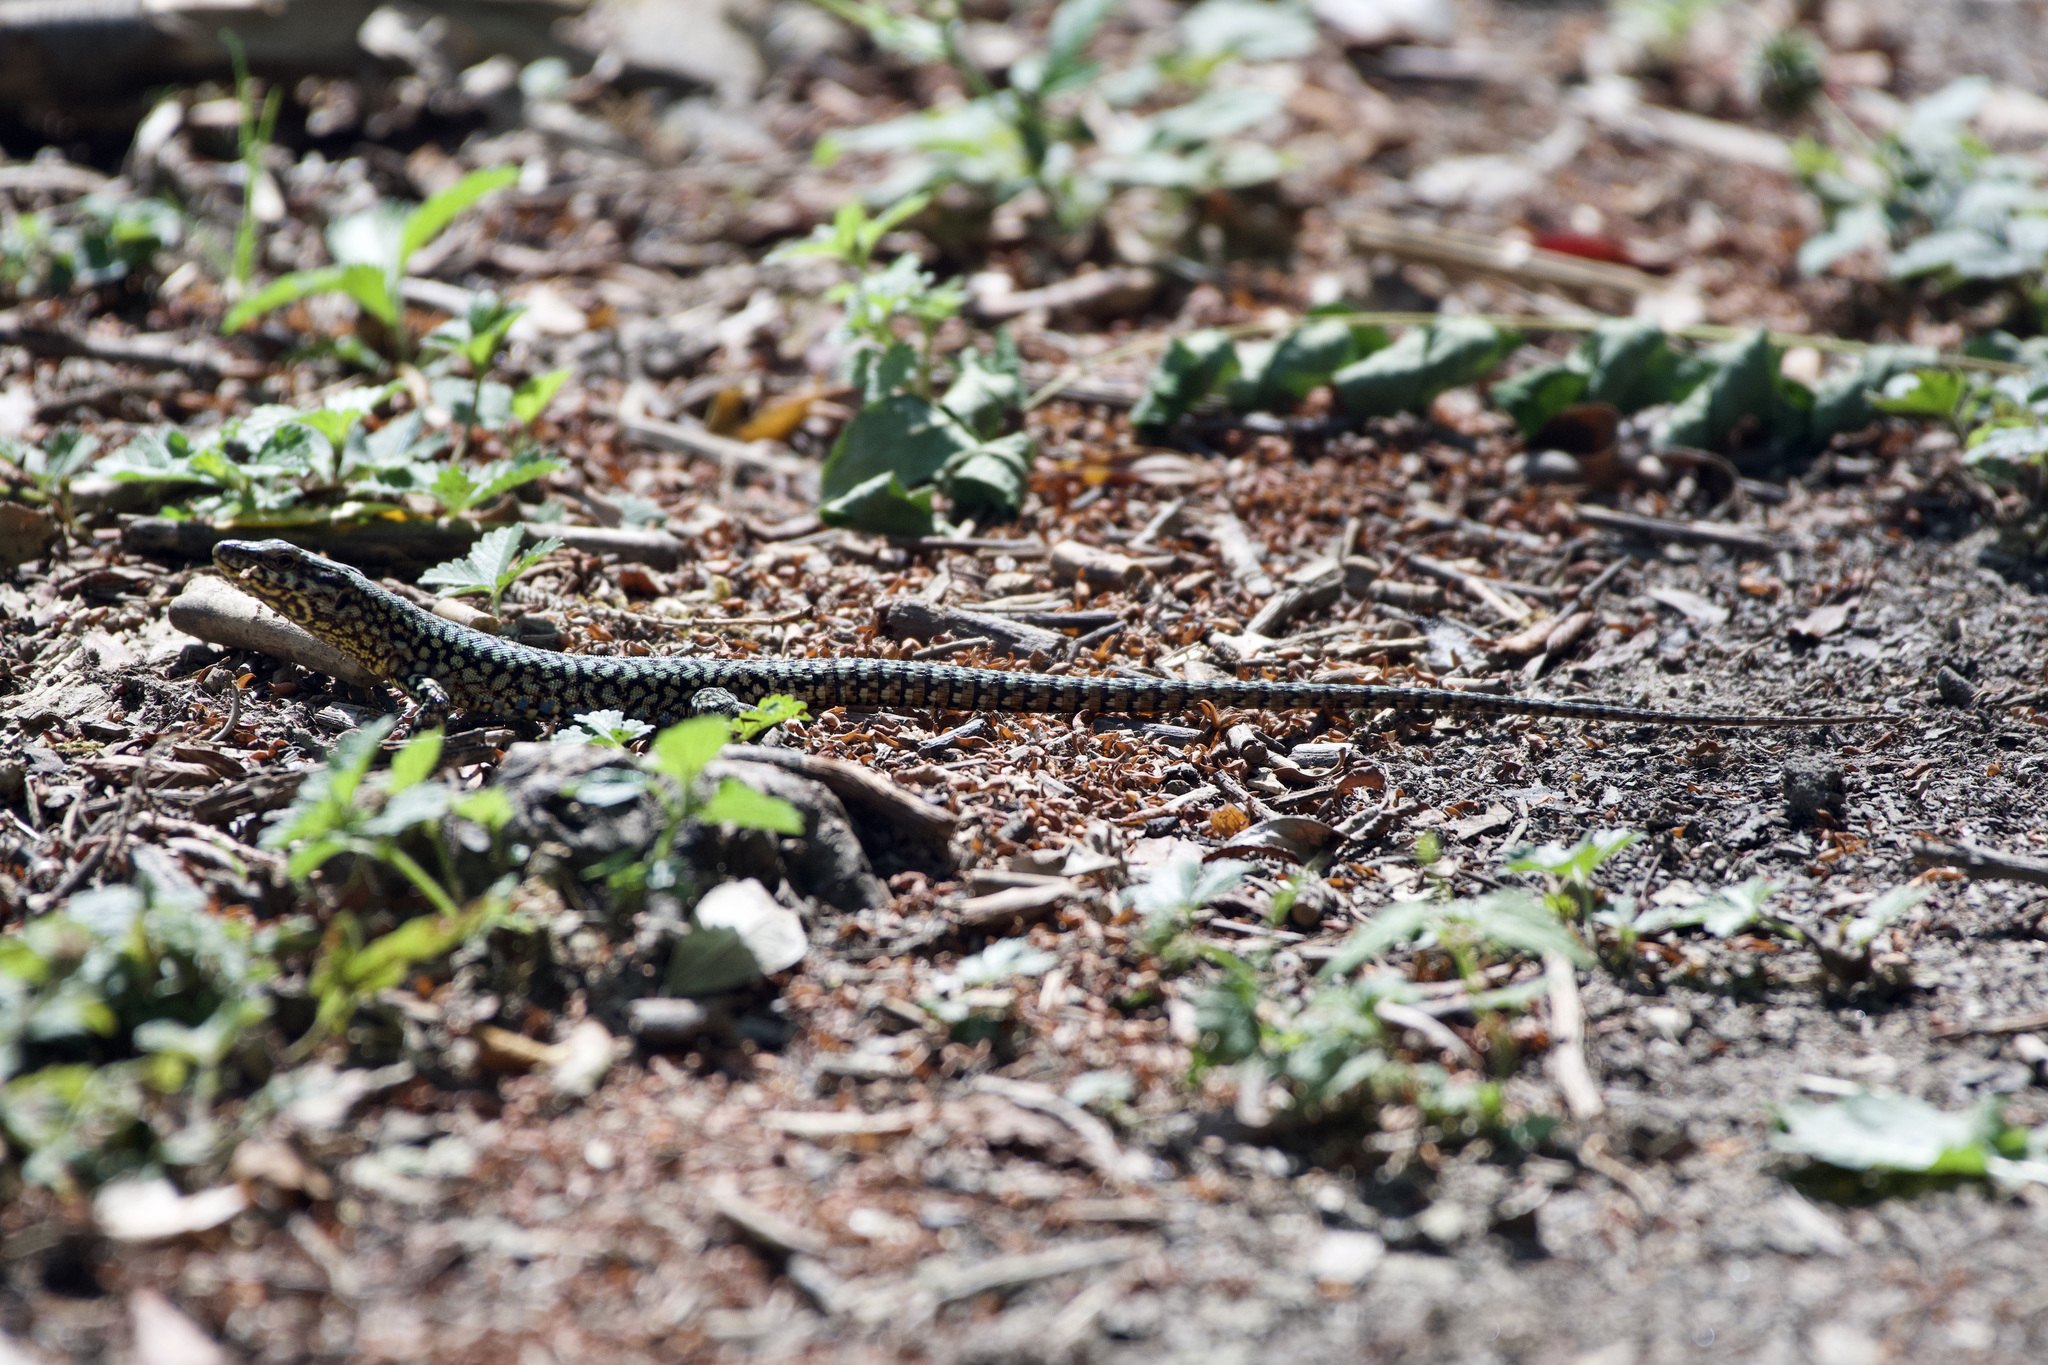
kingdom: Animalia
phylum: Chordata
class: Squamata
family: Lacertidae
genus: Podarcis
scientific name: Podarcis muralis
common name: Common wall lizard
